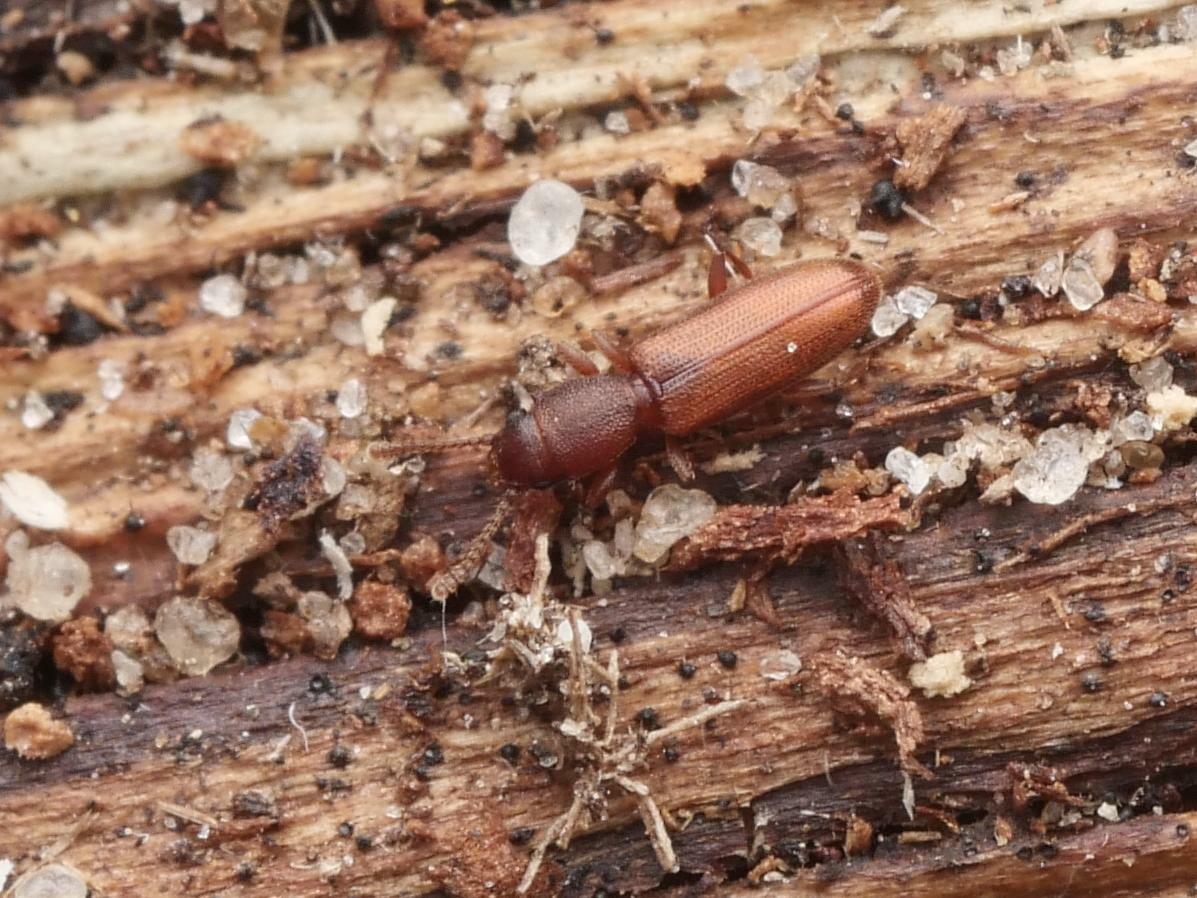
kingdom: Animalia
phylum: Arthropoda
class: Insecta
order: Coleoptera
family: Silvanidae
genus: Silvanus
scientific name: Silvanus unidentatus
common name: One-toothed silvan flat bark beetle
